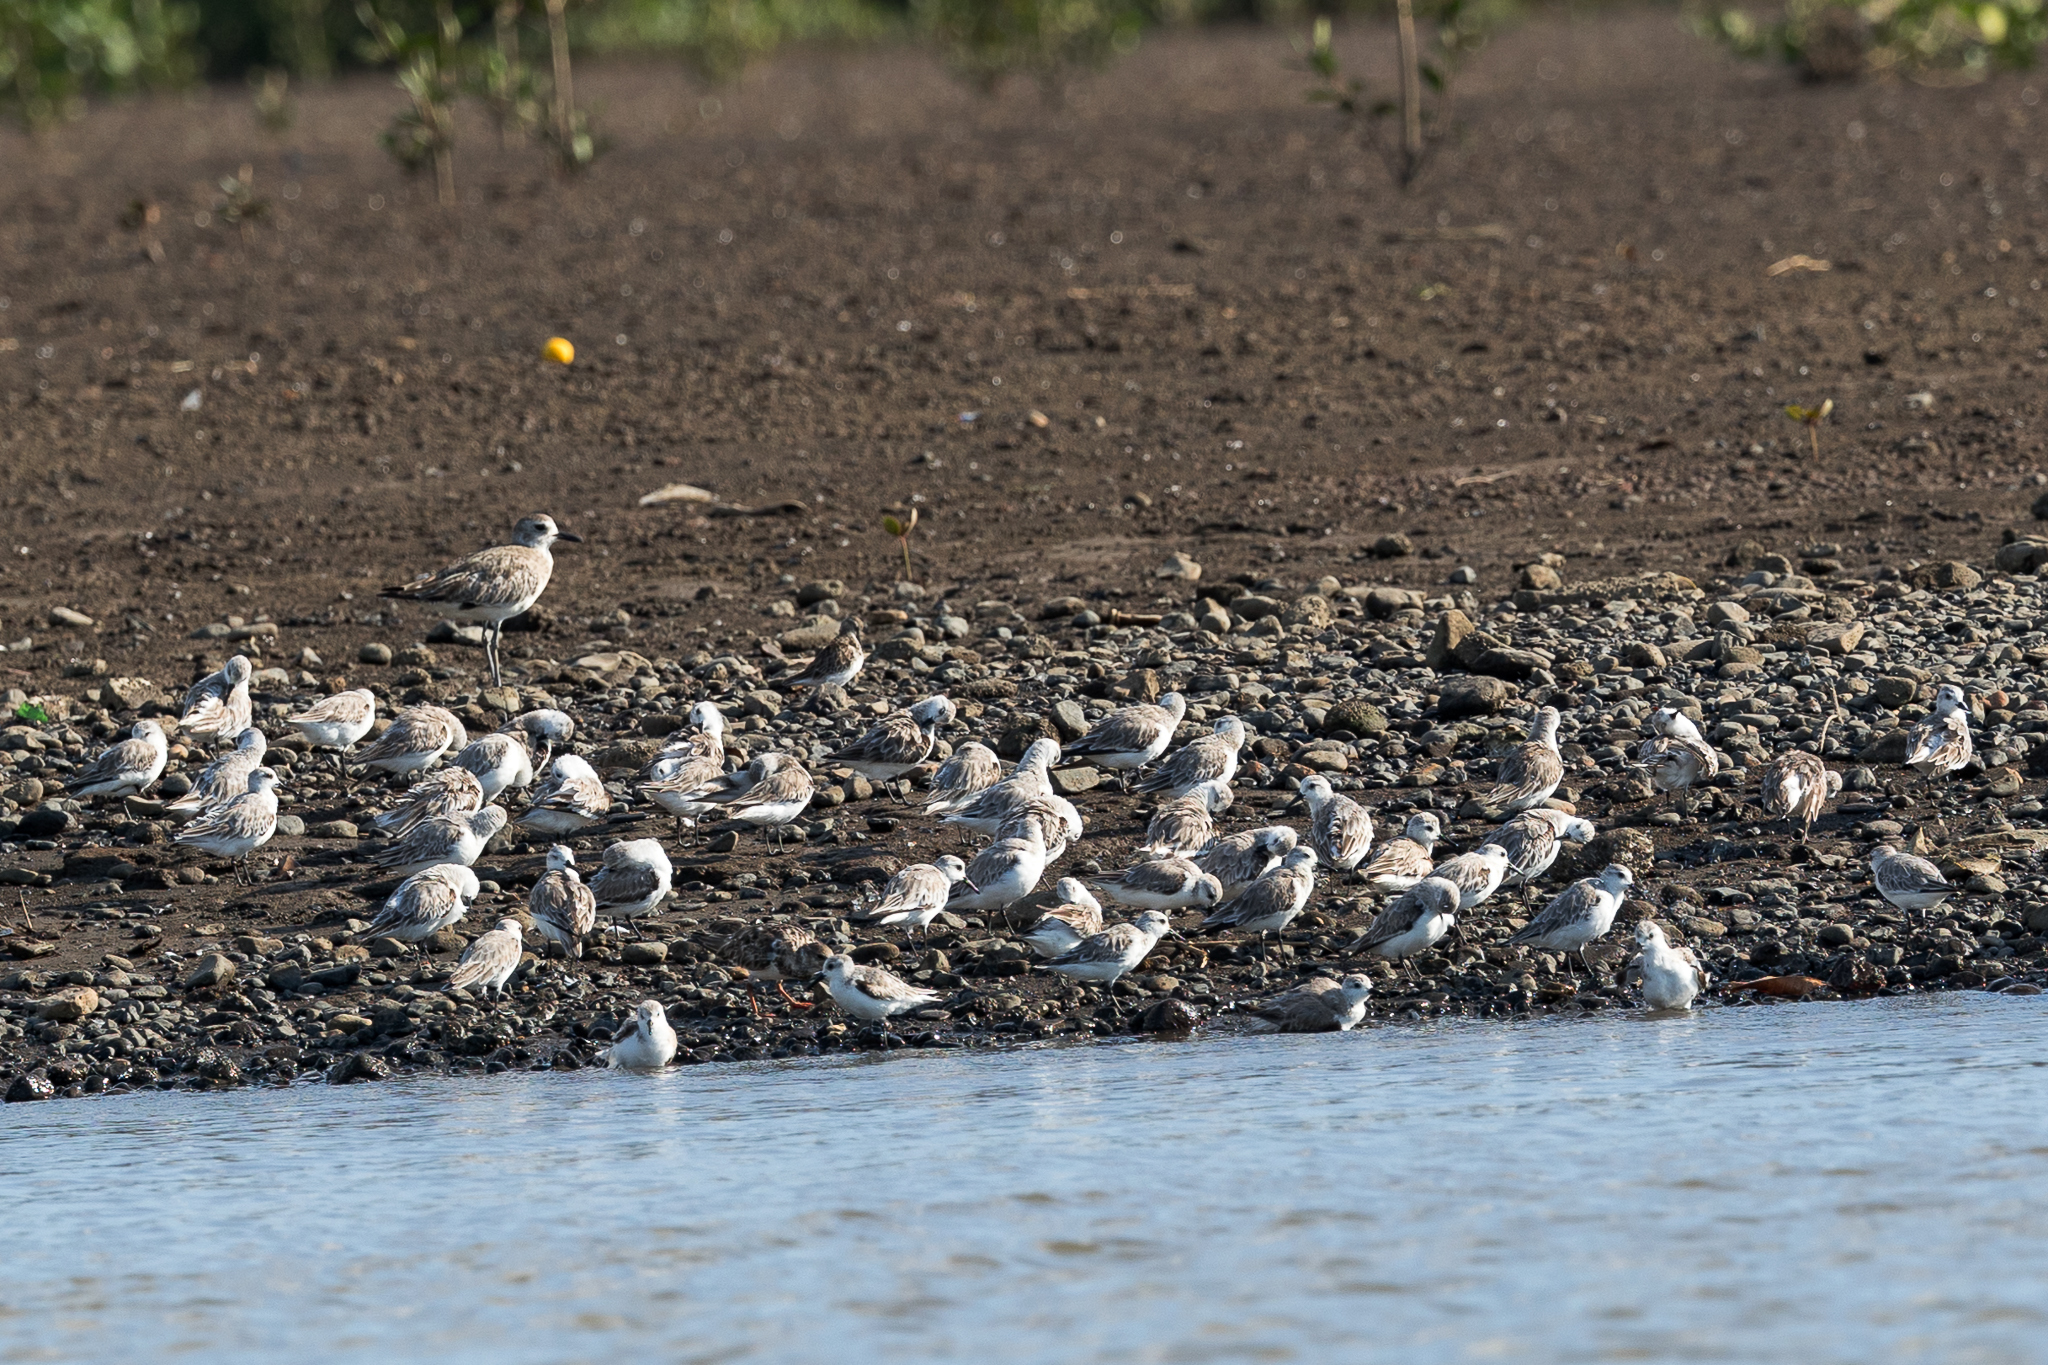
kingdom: Animalia
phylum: Chordata
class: Aves
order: Charadriiformes
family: Scolopacidae
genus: Calidris
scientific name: Calidris alba
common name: Sanderling
